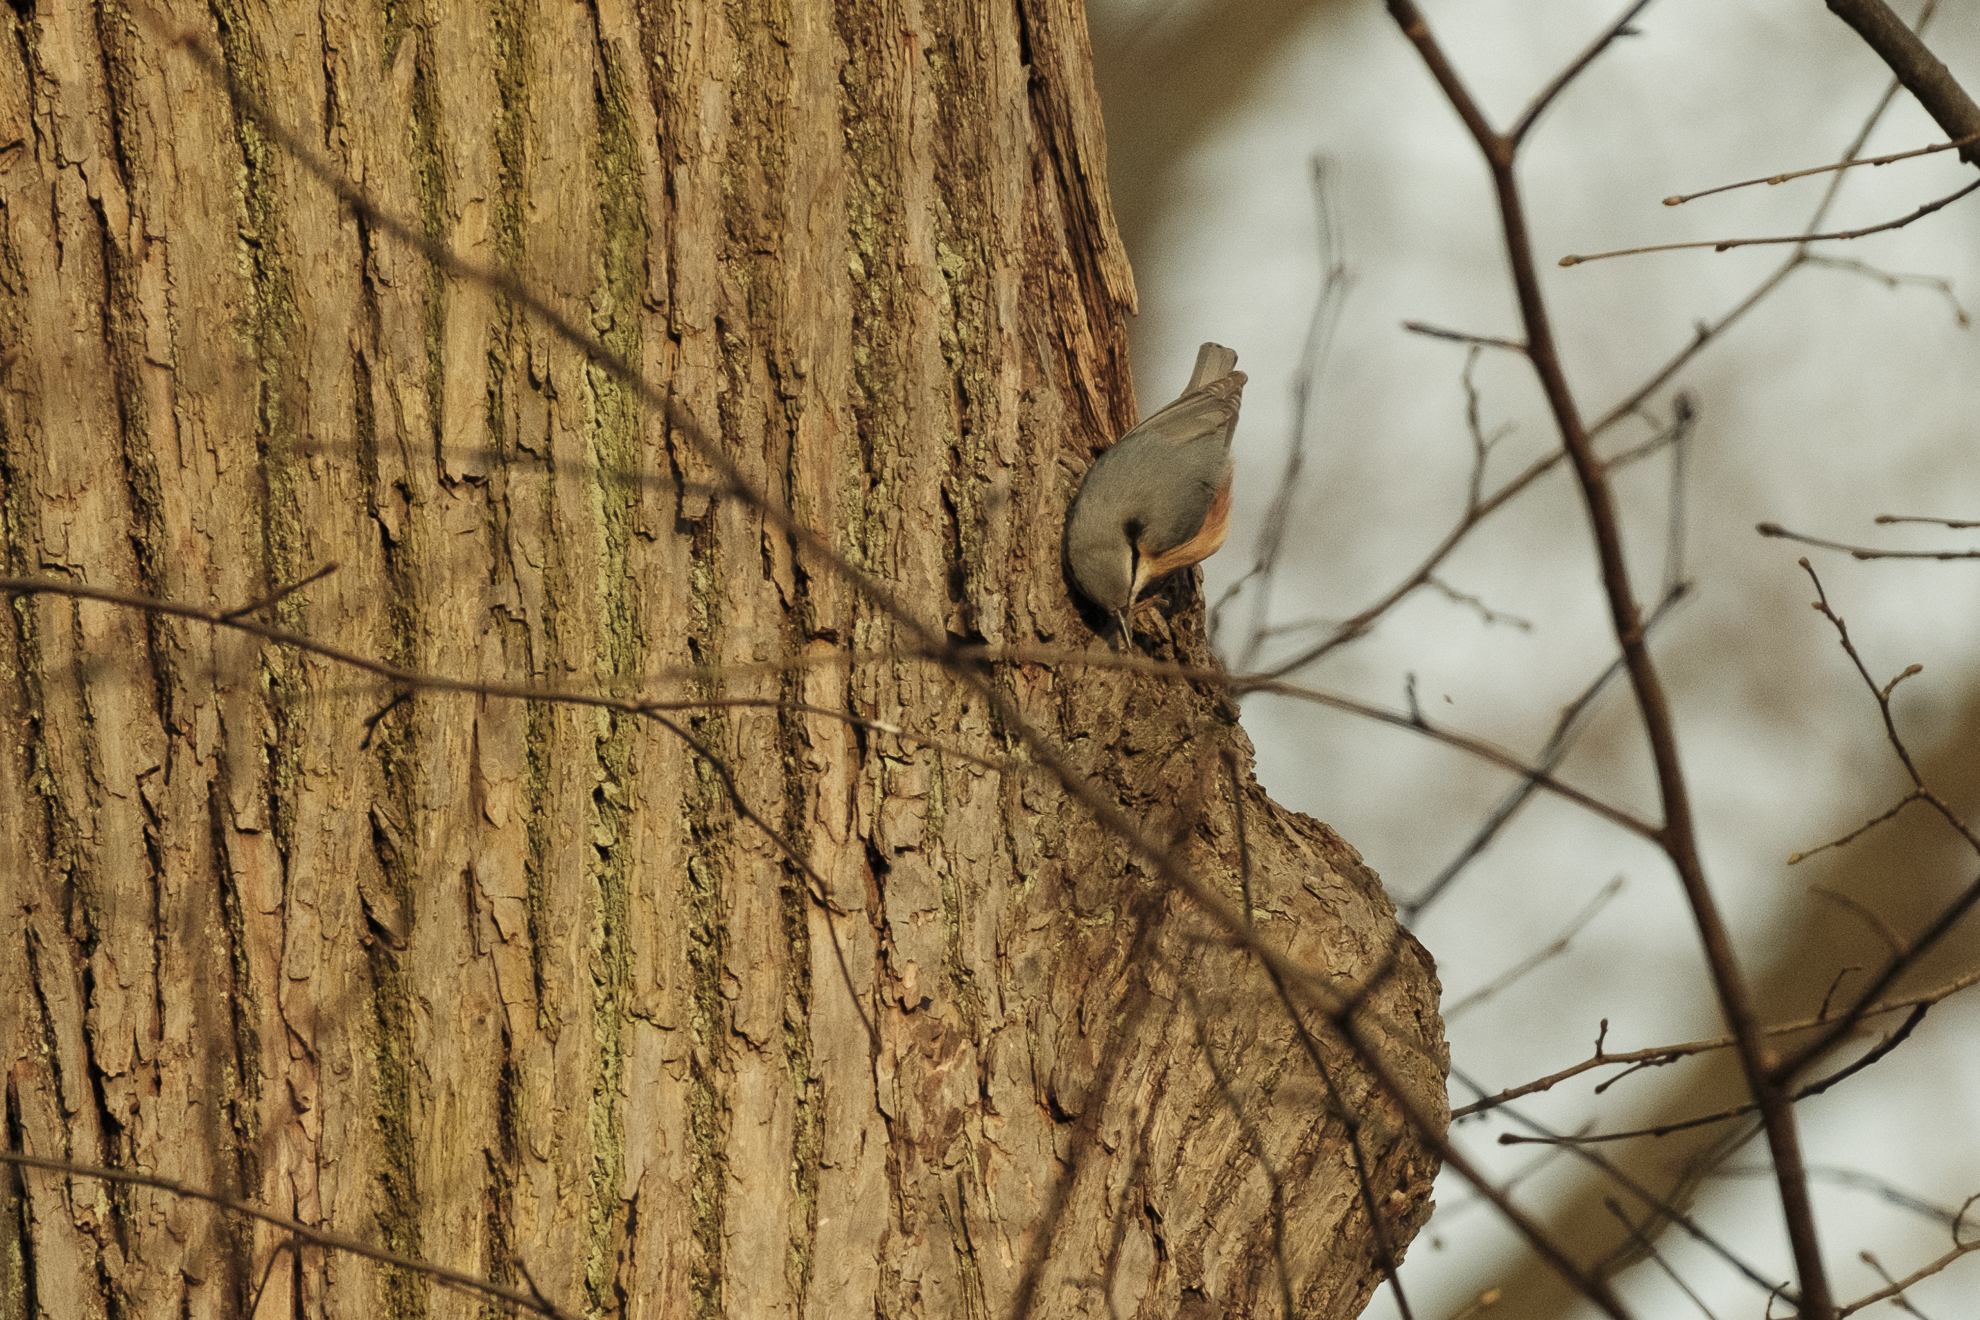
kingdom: Animalia
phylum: Chordata
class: Aves
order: Passeriformes
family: Sittidae
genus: Sitta
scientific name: Sitta europaea
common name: Eurasian nuthatch
